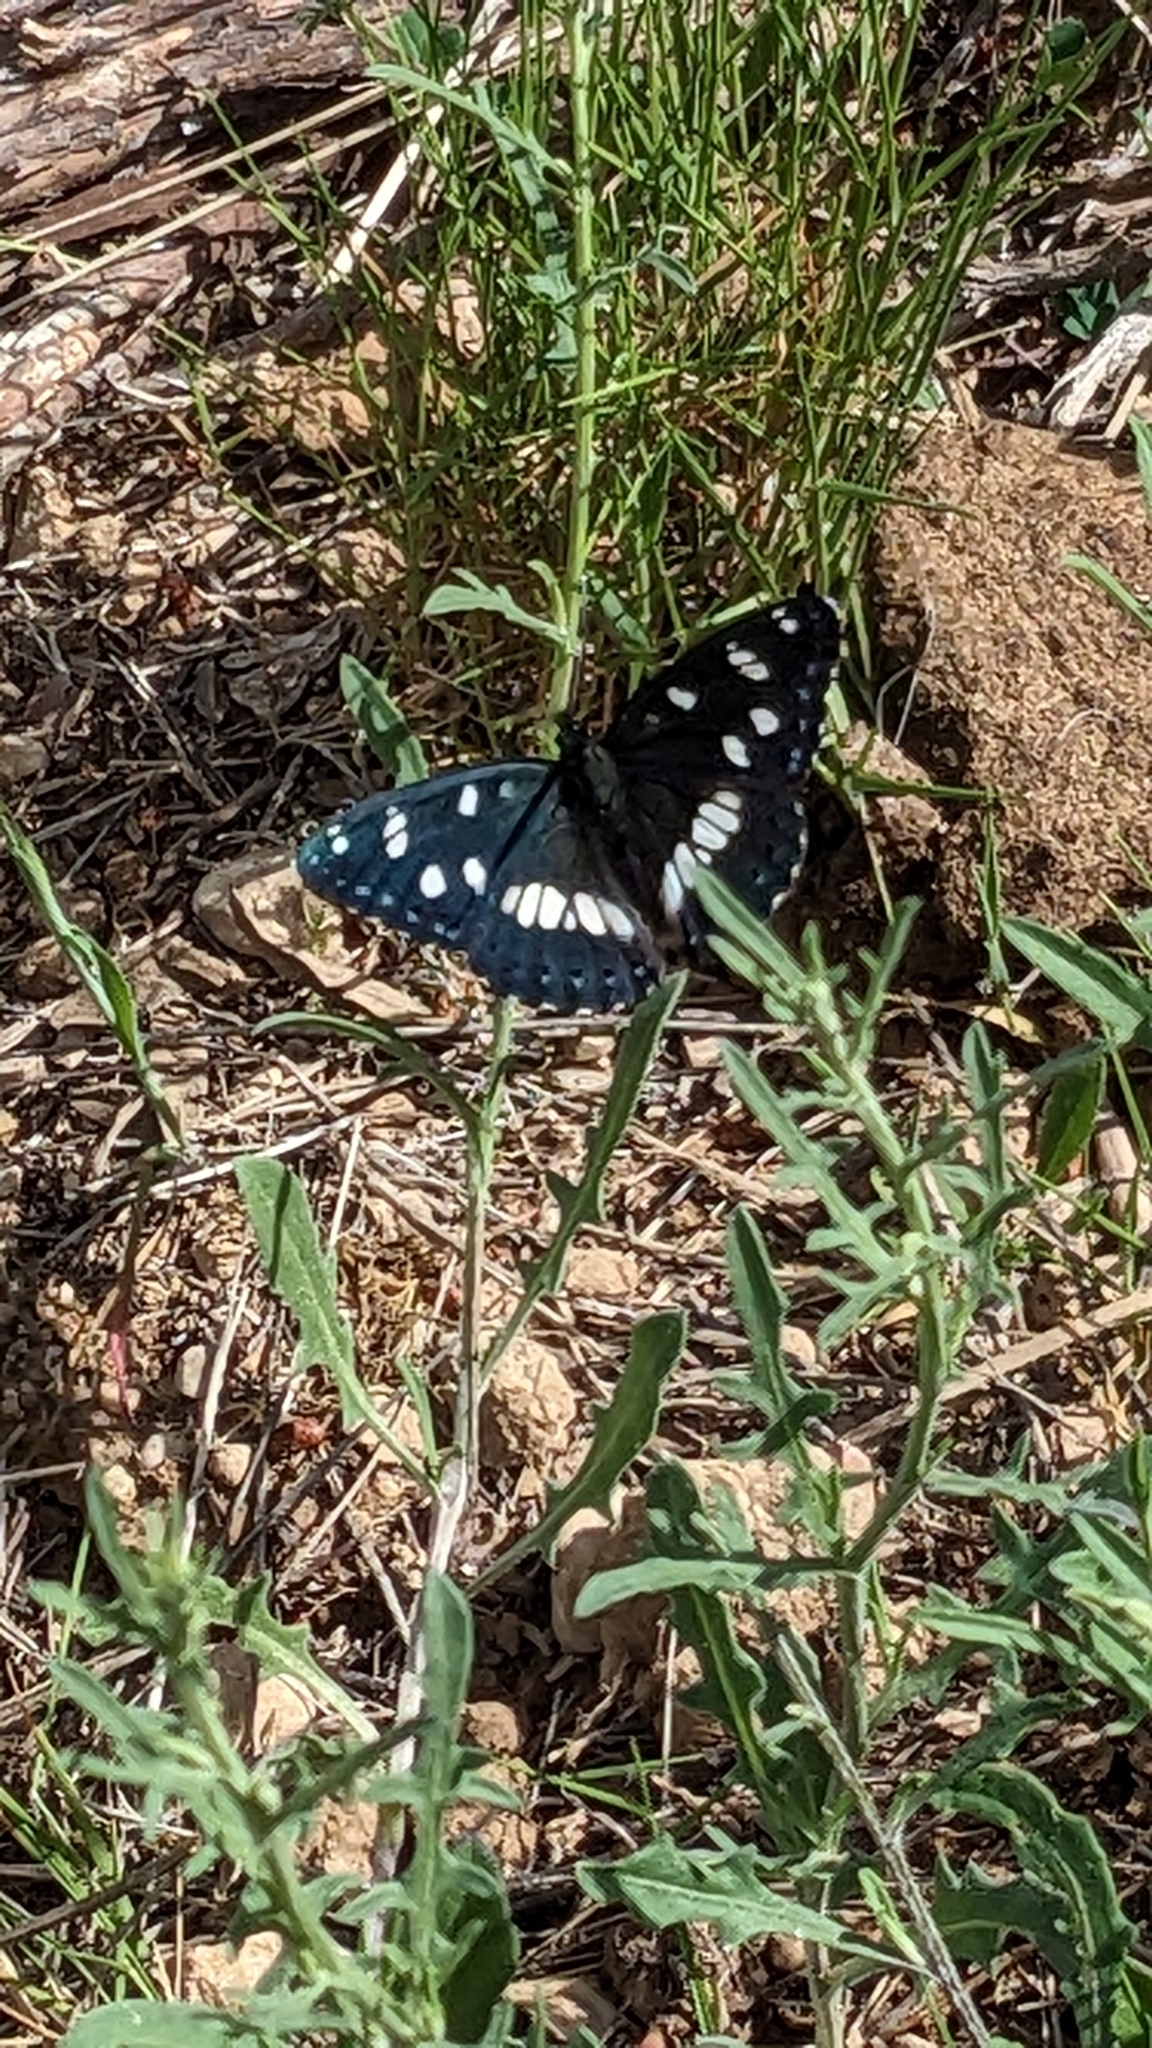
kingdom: Animalia
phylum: Arthropoda
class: Insecta
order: Lepidoptera
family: Nymphalidae
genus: Limenitis
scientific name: Limenitis reducta
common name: Southern white admiral
